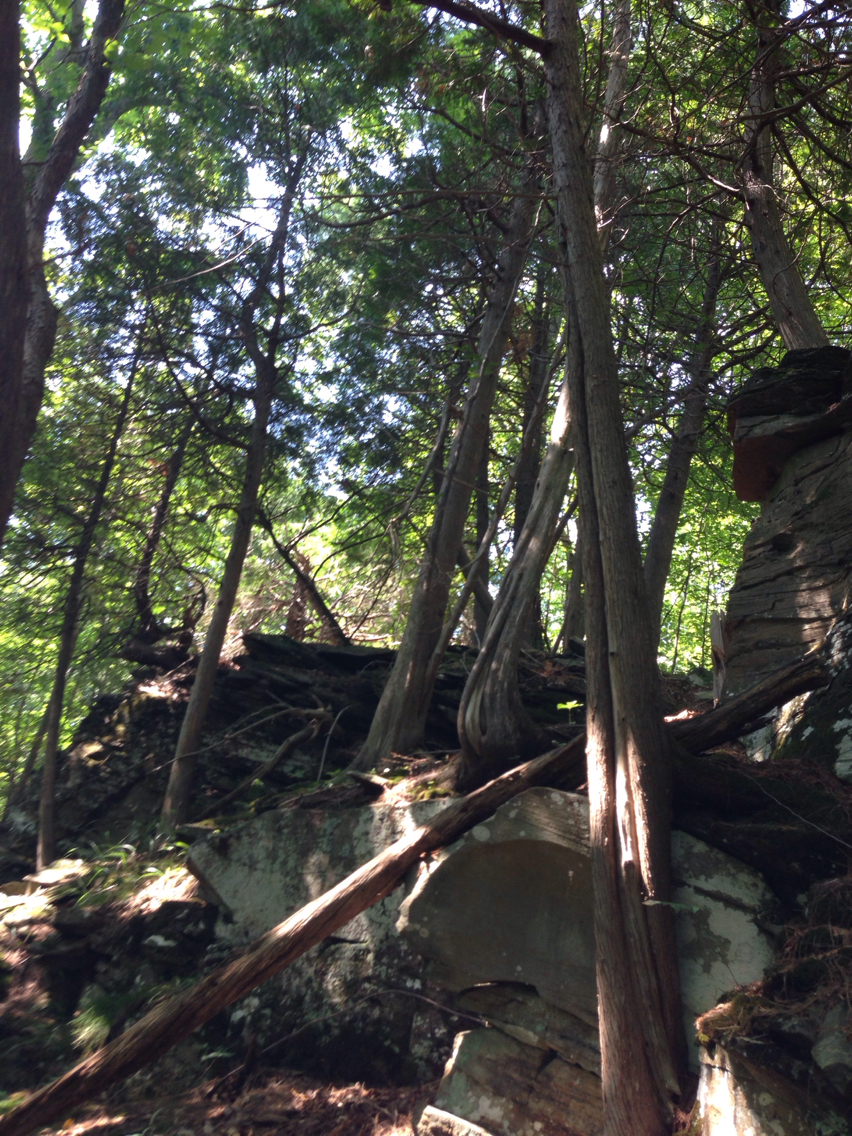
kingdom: Plantae
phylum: Tracheophyta
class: Pinopsida
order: Pinales
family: Cupressaceae
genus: Thuja
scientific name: Thuja occidentalis
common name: Northern white-cedar
